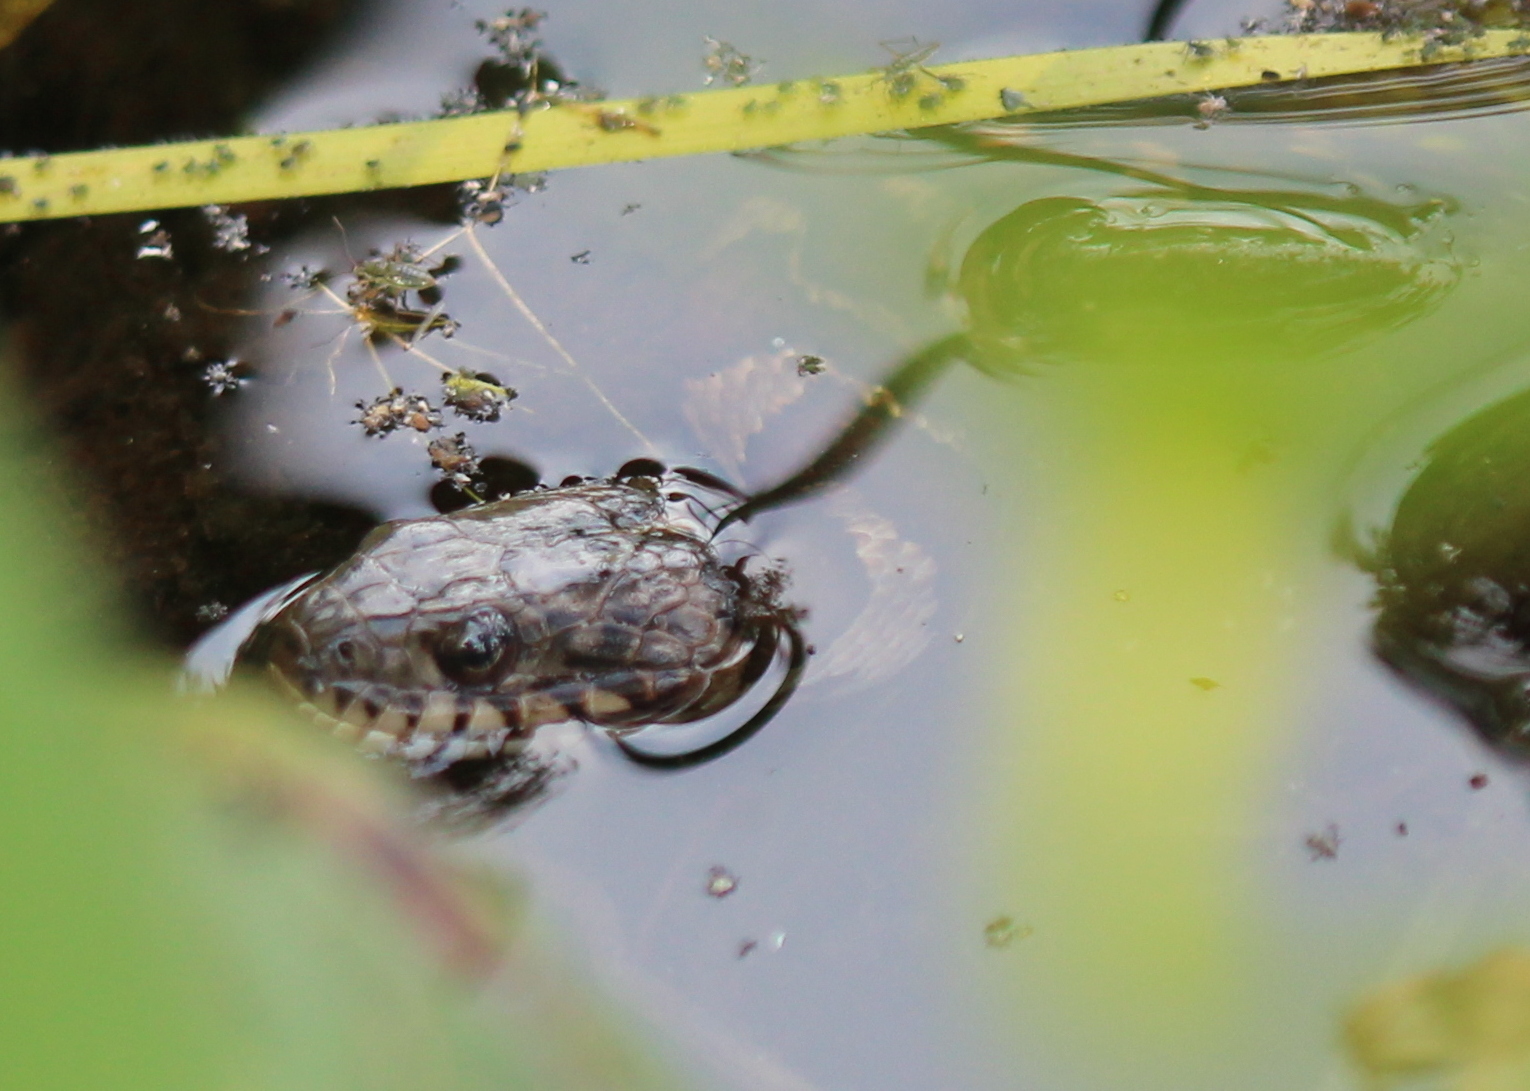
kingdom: Animalia
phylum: Chordata
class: Squamata
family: Colubridae
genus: Nerodia
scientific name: Nerodia sipedon
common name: Northern water snake
